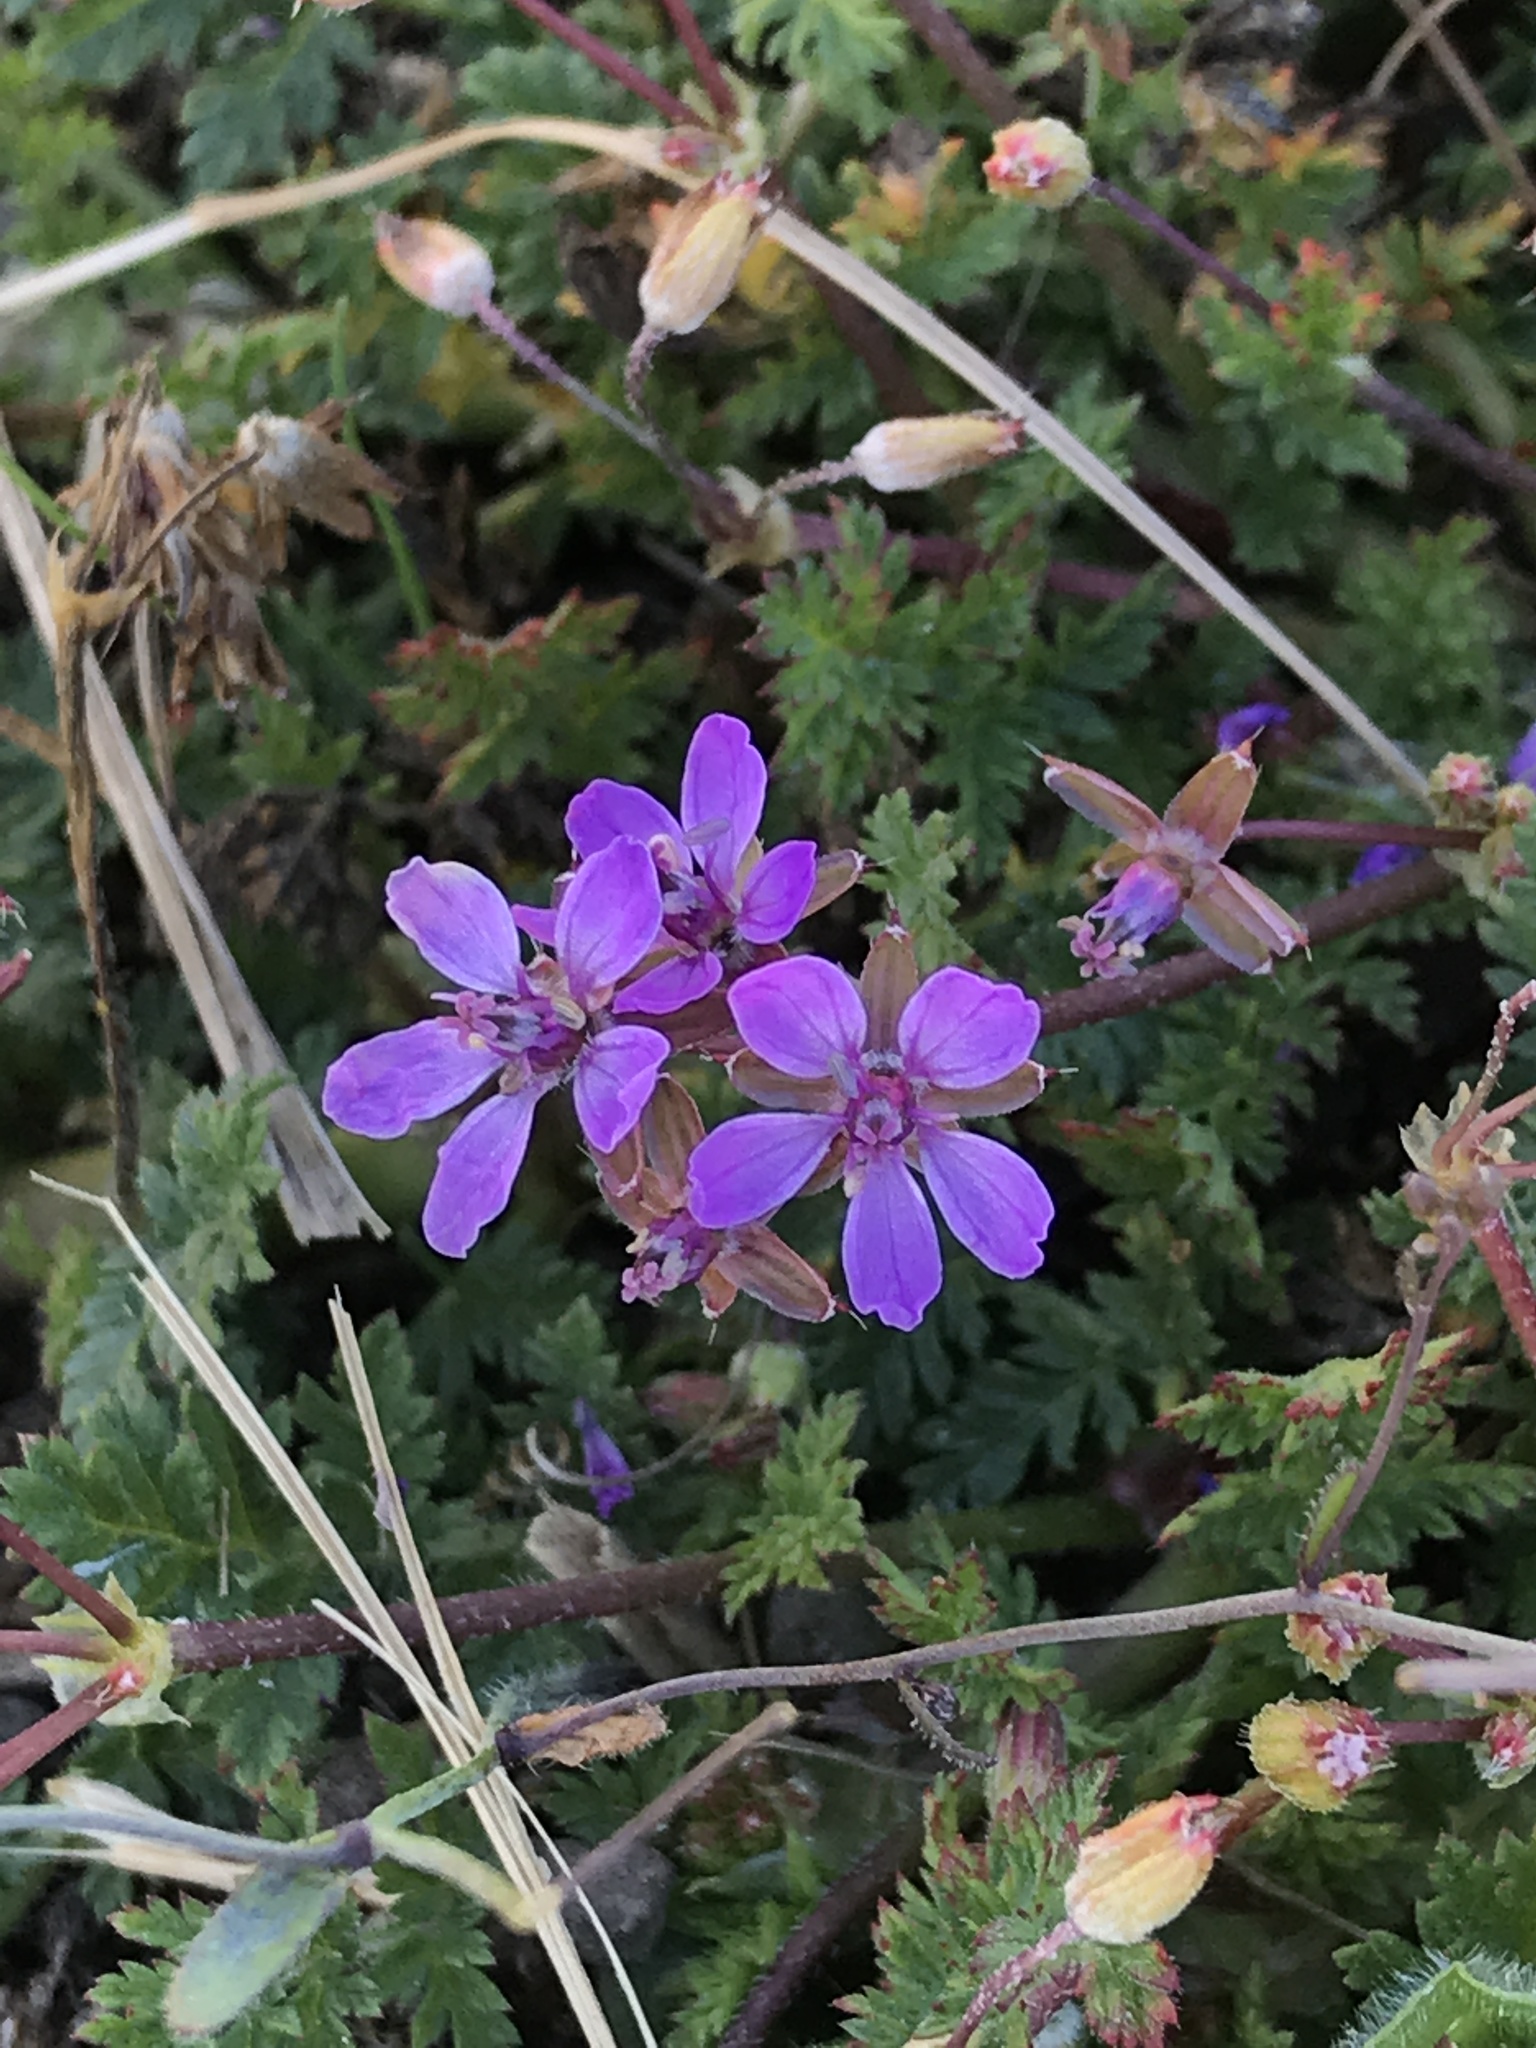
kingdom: Plantae
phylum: Tracheophyta
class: Magnoliopsida
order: Geraniales
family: Geraniaceae
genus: Erodium
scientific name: Erodium cicutarium
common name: Common stork's-bill
